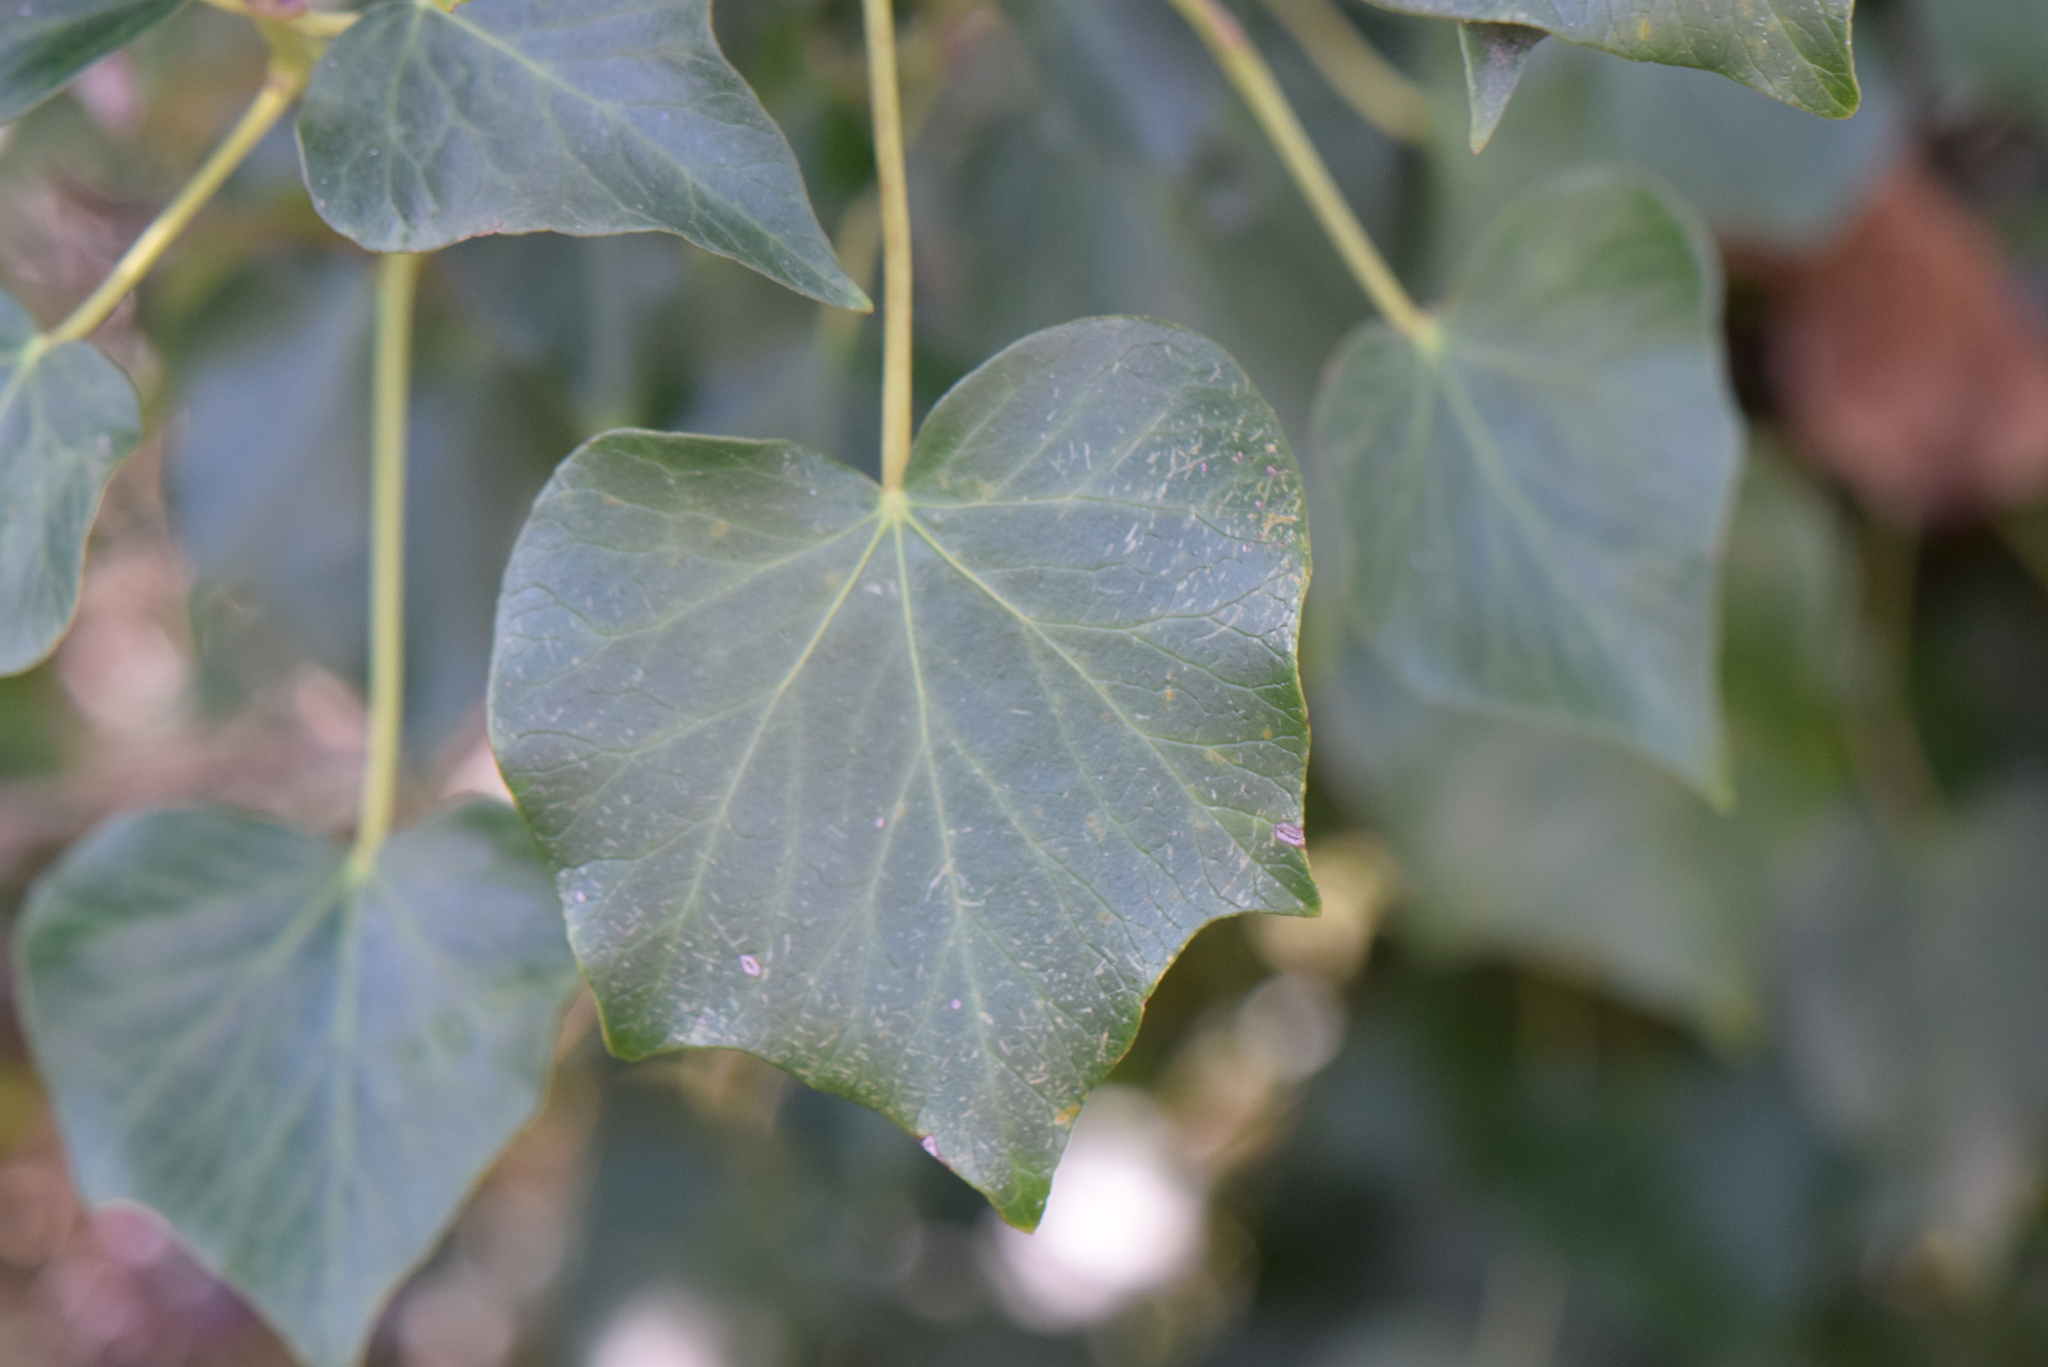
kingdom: Plantae
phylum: Tracheophyta
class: Magnoliopsida
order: Apiales
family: Araliaceae
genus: Hedera
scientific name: Hedera helix
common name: Ivy
